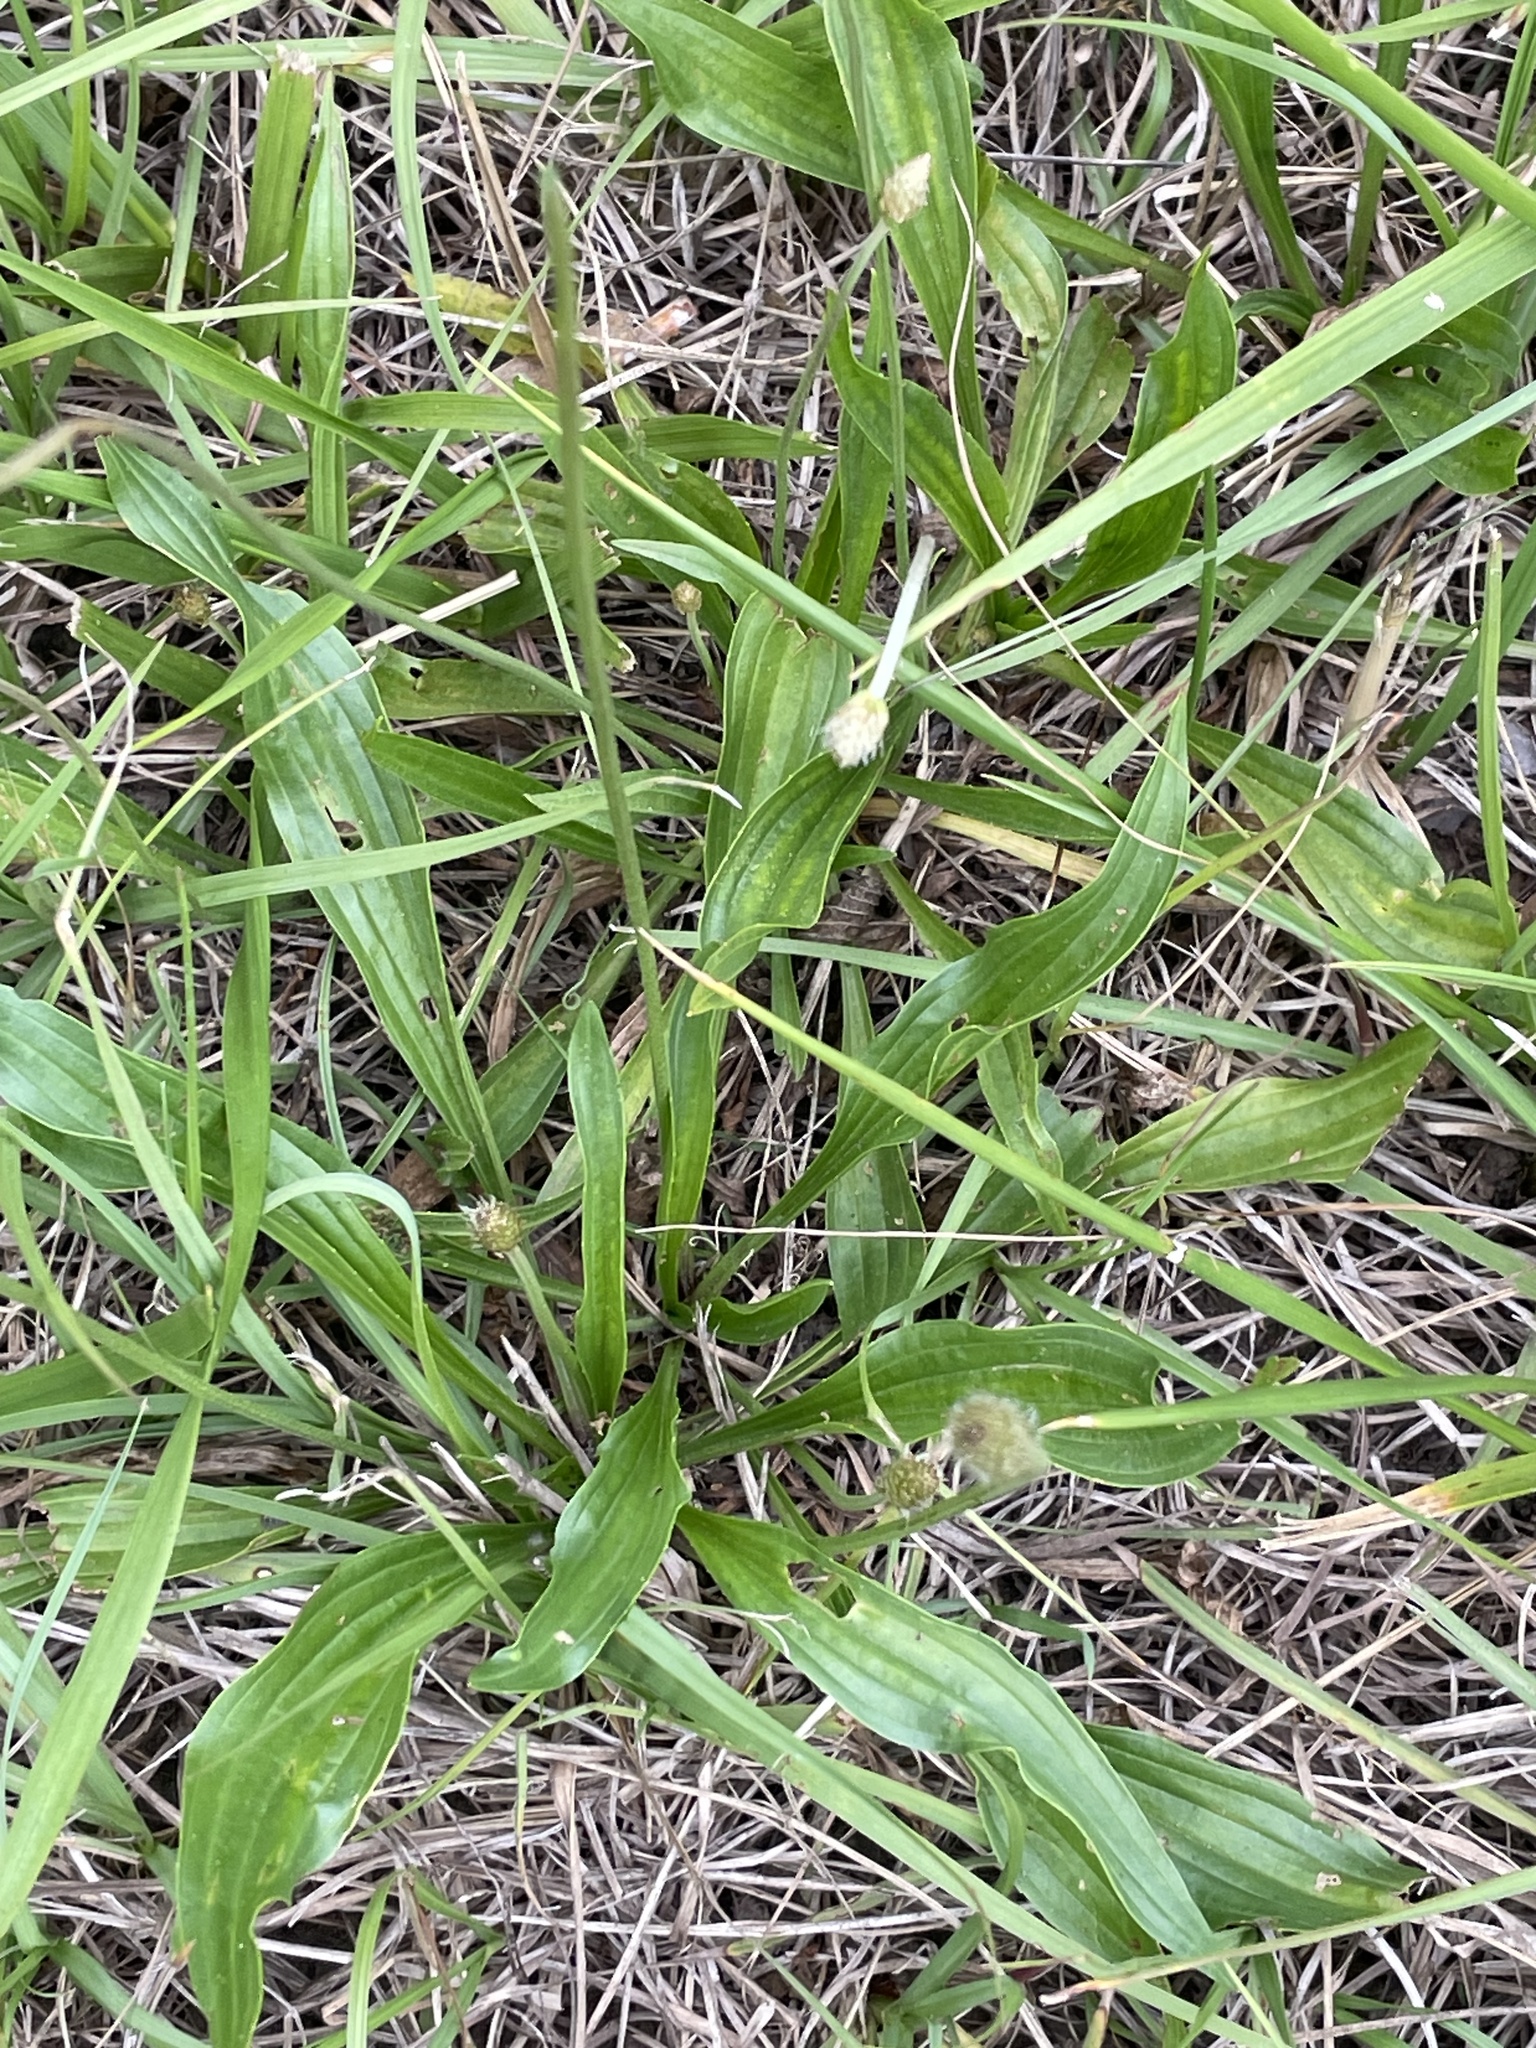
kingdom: Plantae
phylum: Tracheophyta
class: Magnoliopsida
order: Lamiales
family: Plantaginaceae
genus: Plantago
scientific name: Plantago lanceolata
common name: Ribwort plantain
